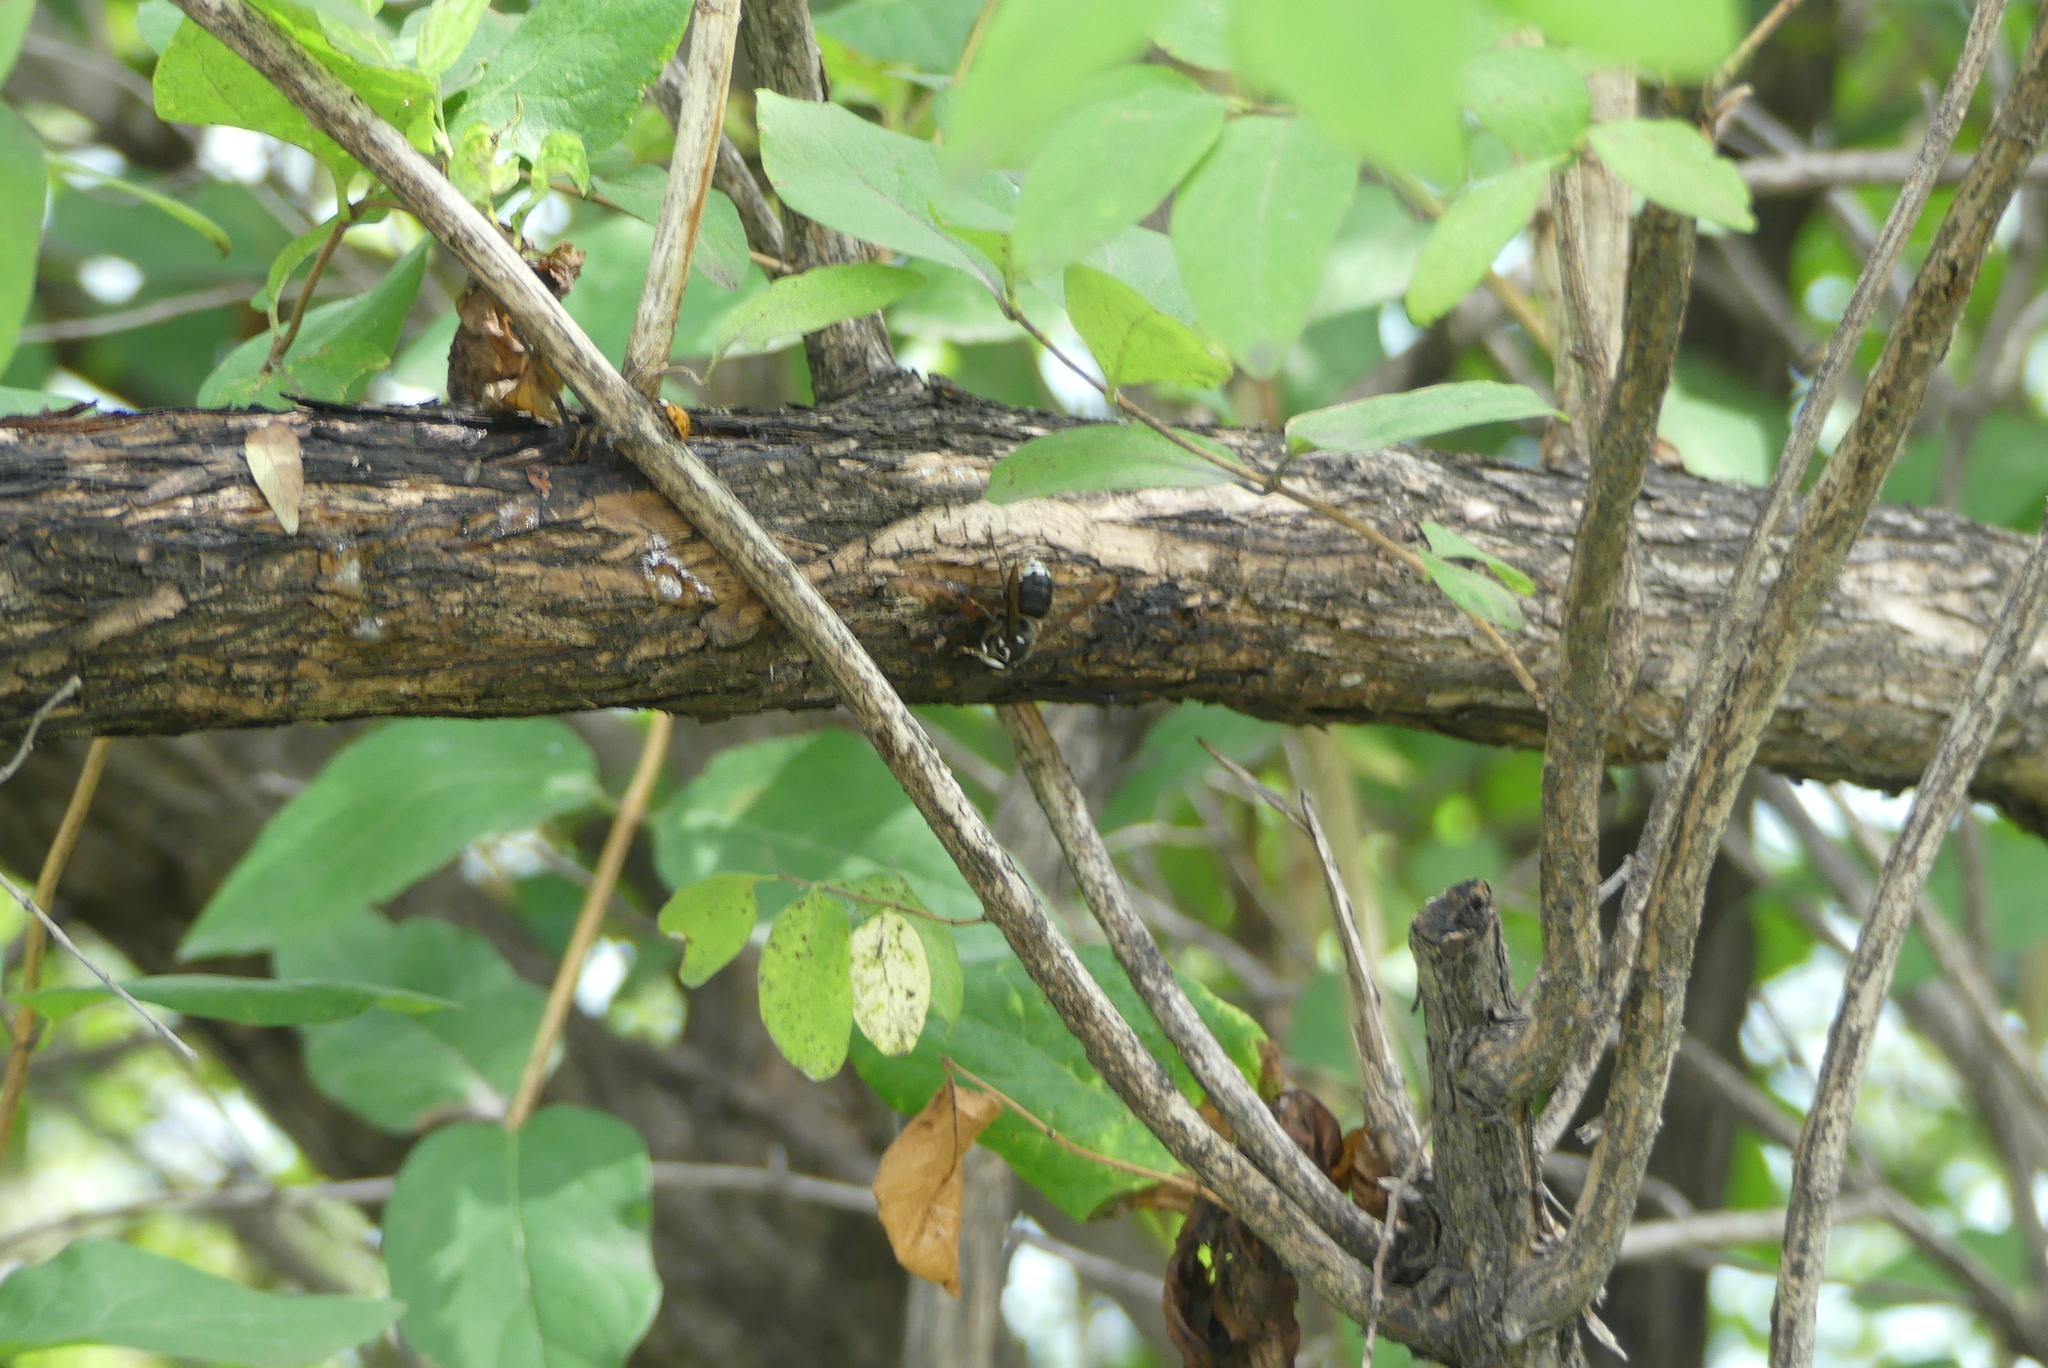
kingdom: Animalia
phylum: Arthropoda
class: Insecta
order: Hymenoptera
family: Vespidae
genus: Dolichovespula
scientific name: Dolichovespula maculata
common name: Bald-faced hornet
